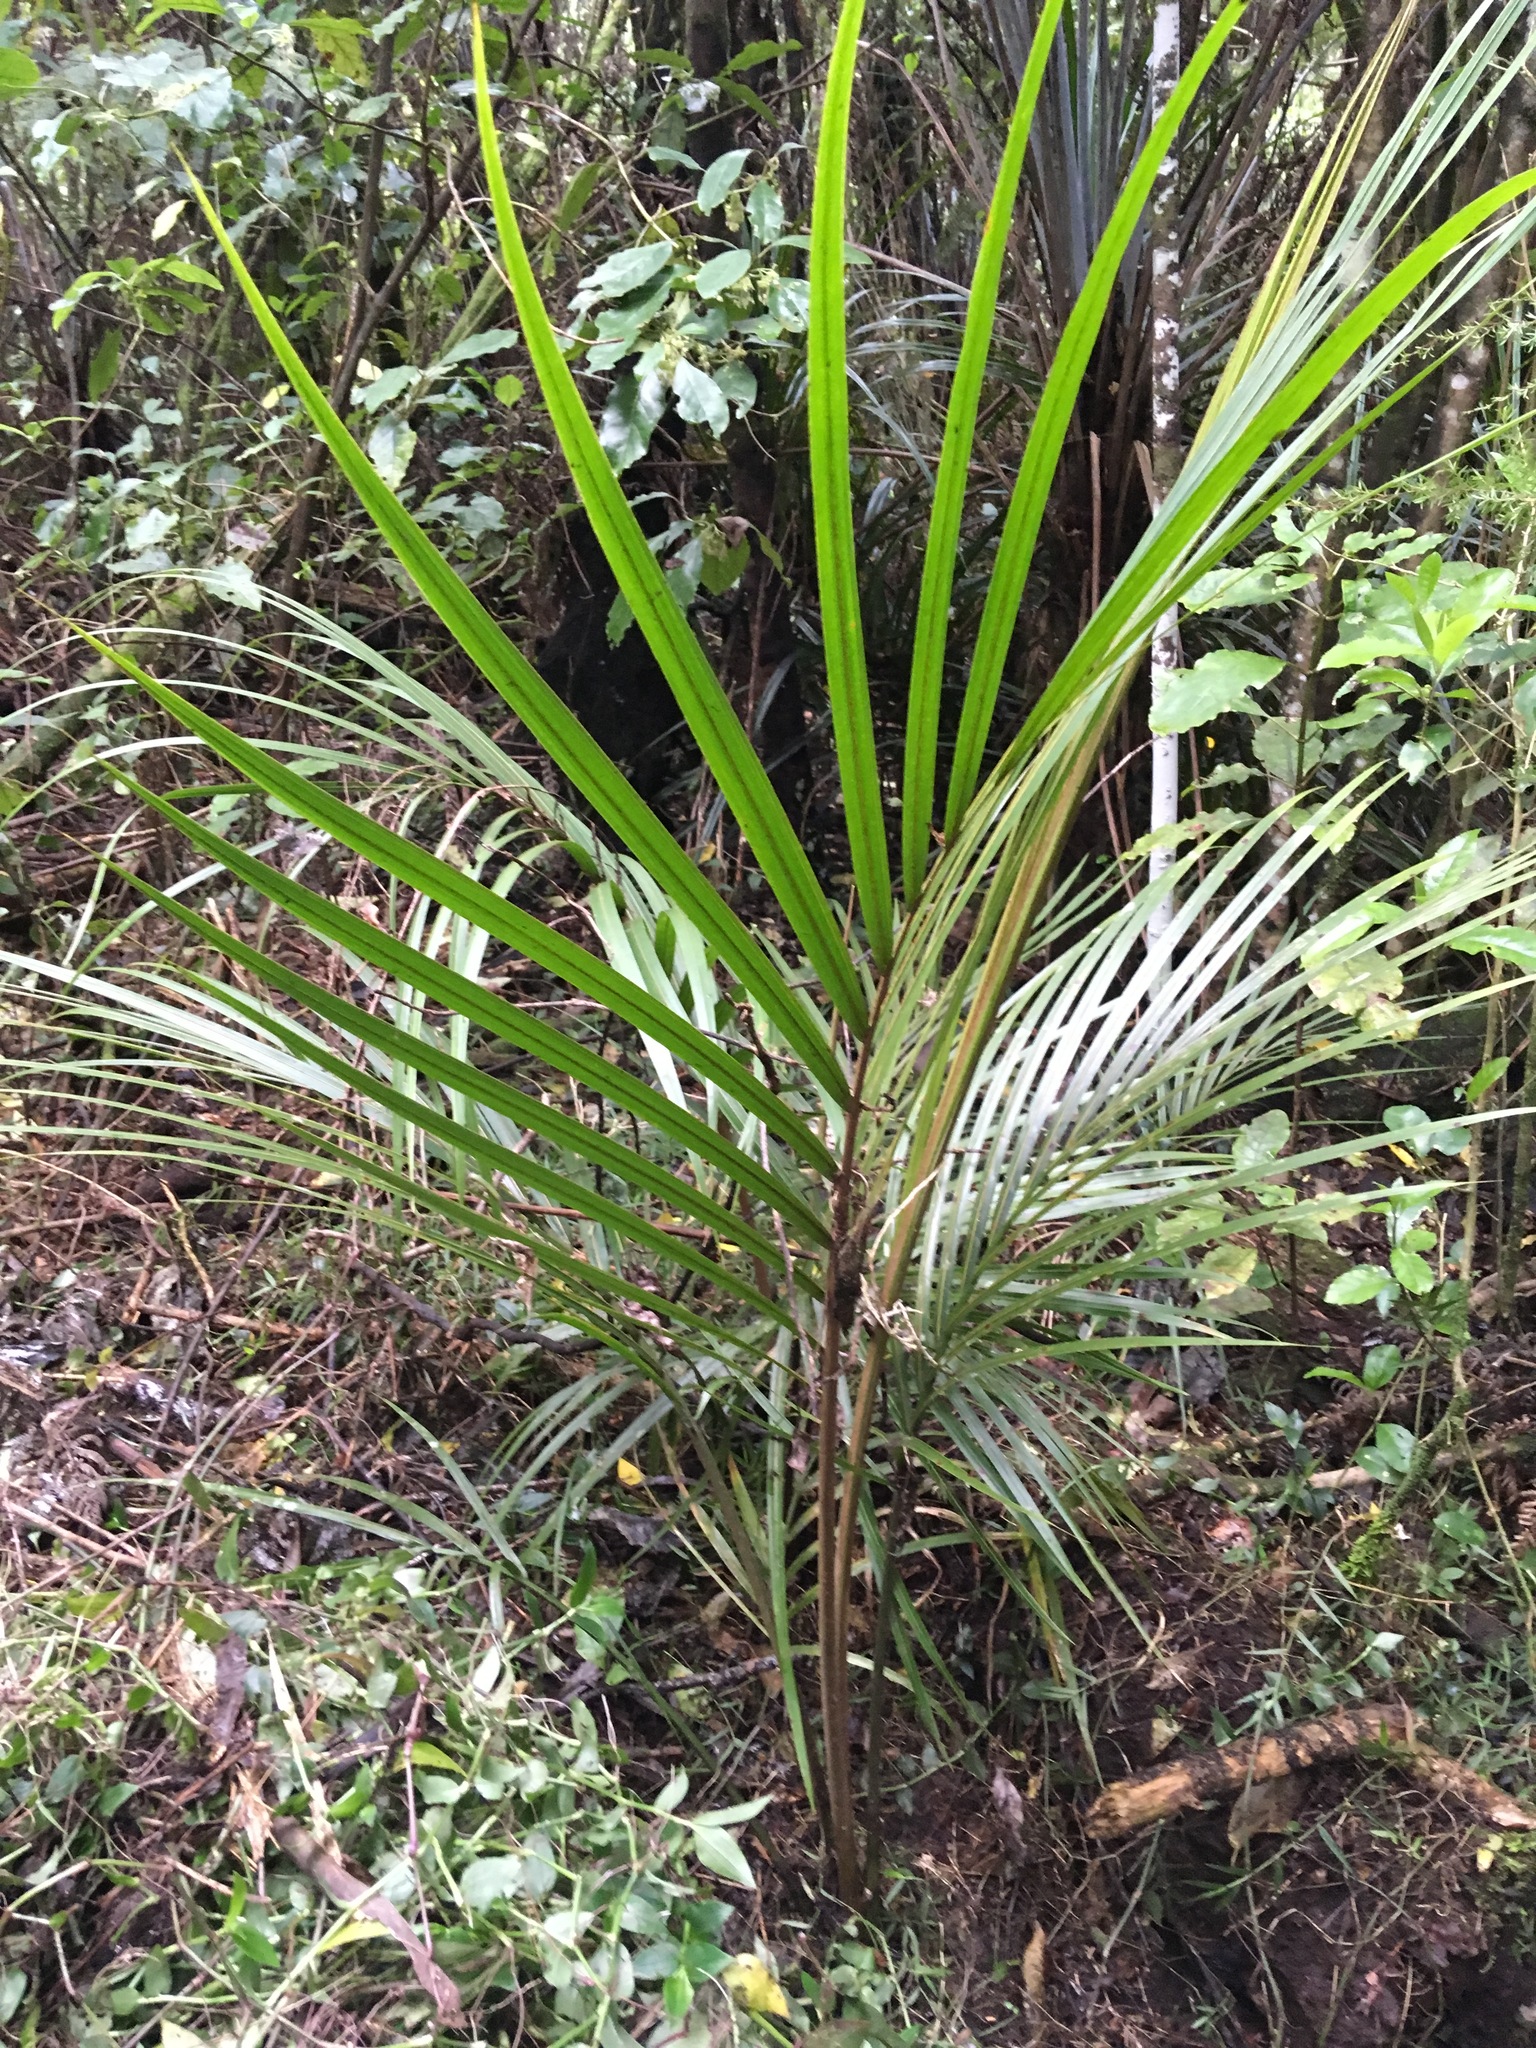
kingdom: Plantae
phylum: Tracheophyta
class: Liliopsida
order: Arecales
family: Arecaceae
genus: Rhopalostylis
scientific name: Rhopalostylis sapida
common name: Feather-duster palm
